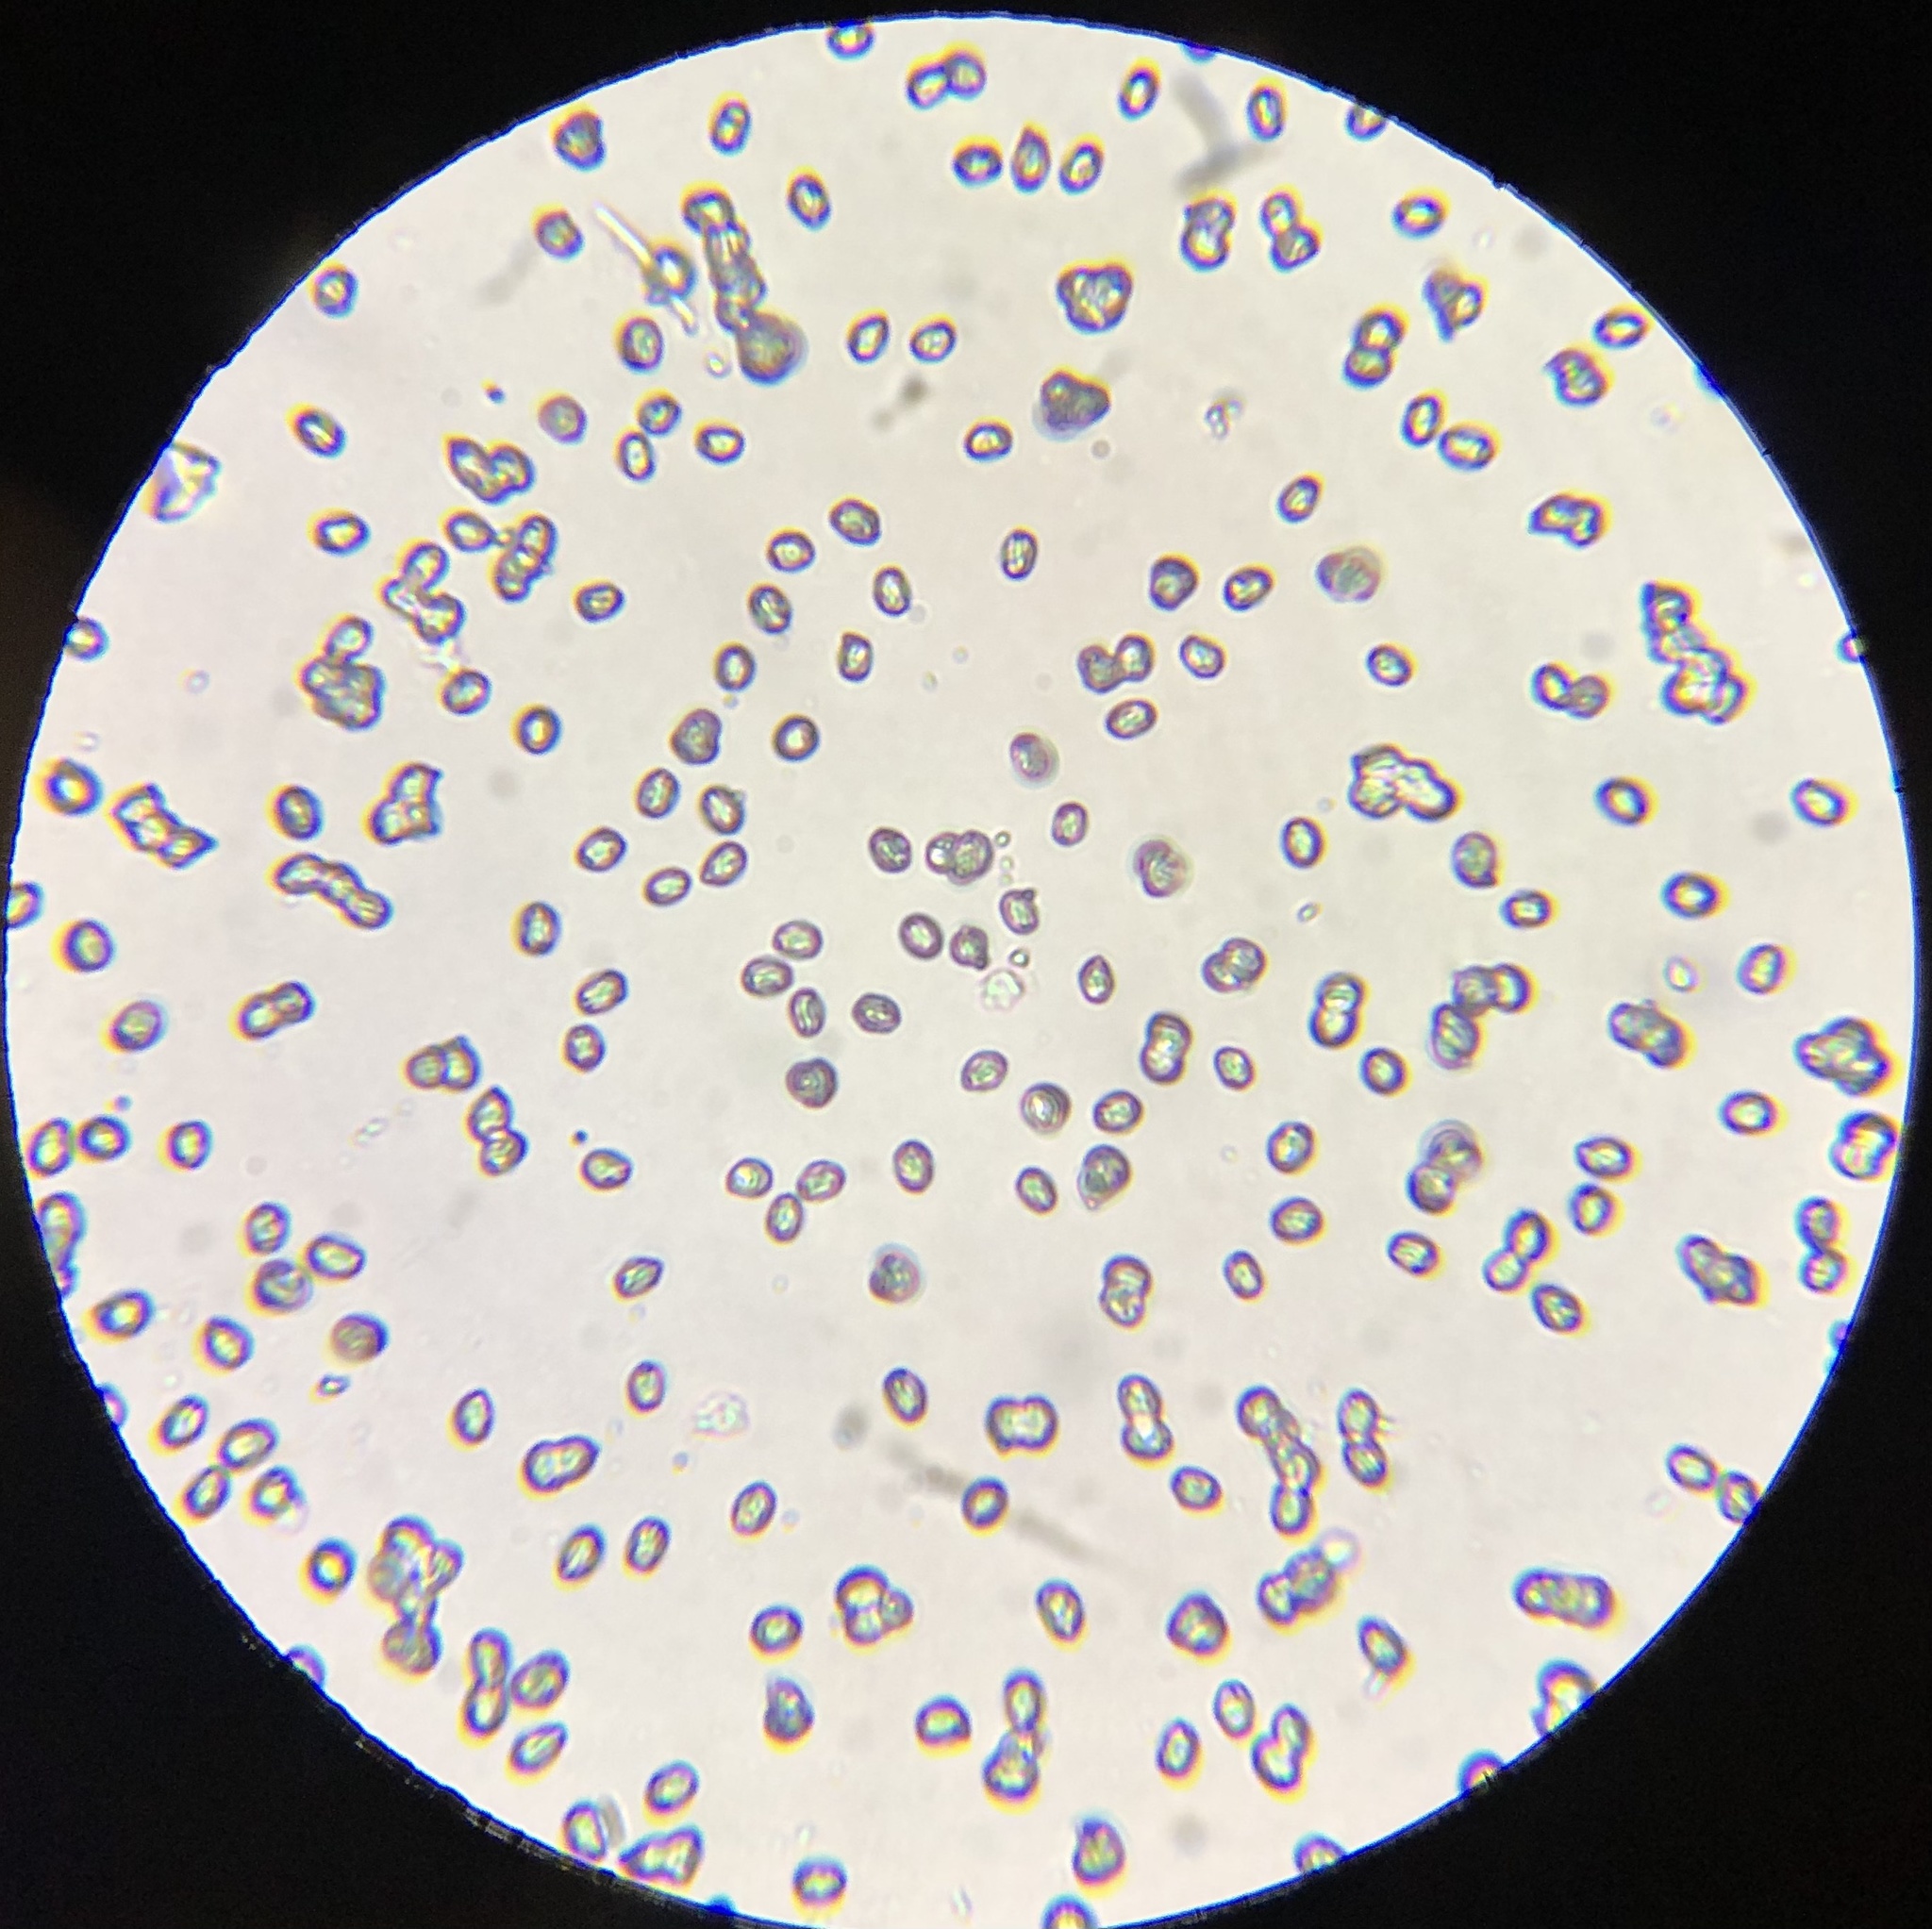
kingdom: Fungi
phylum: Basidiomycota
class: Agaricomycetes
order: Agaricales
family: Tricholomataceae
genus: Tricholoma
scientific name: Tricholoma caligatum
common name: True booted knight
